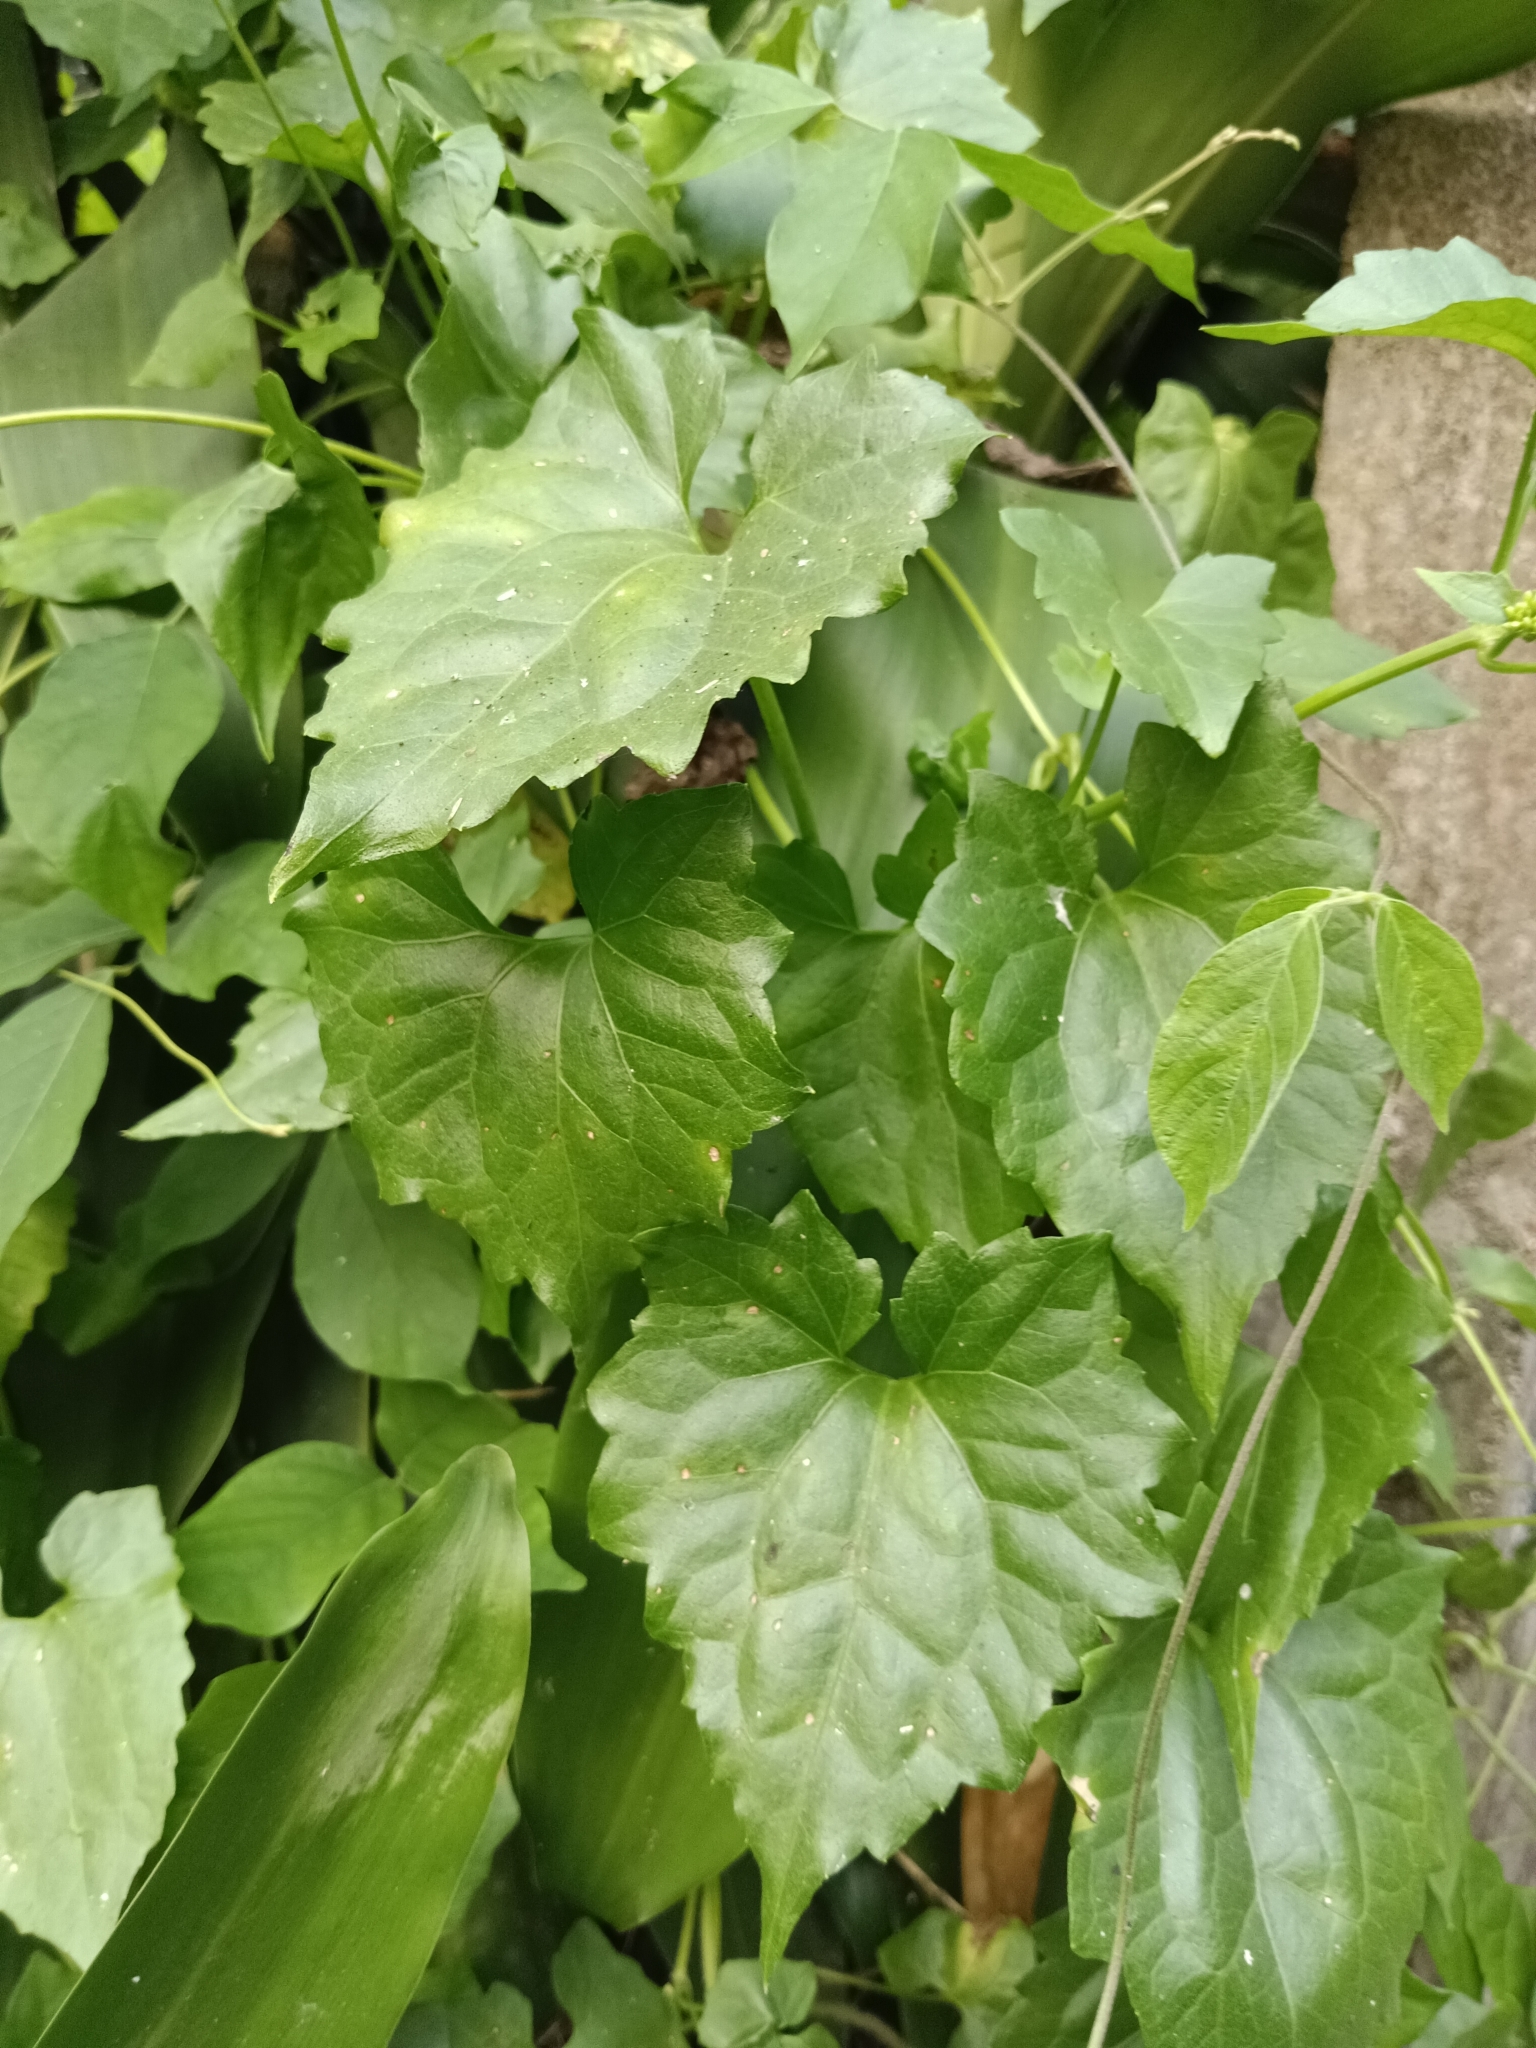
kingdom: Plantae
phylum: Tracheophyta
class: Magnoliopsida
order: Asterales
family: Asteraceae
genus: Mikania
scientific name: Mikania micrantha
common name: Mile-a-minute
